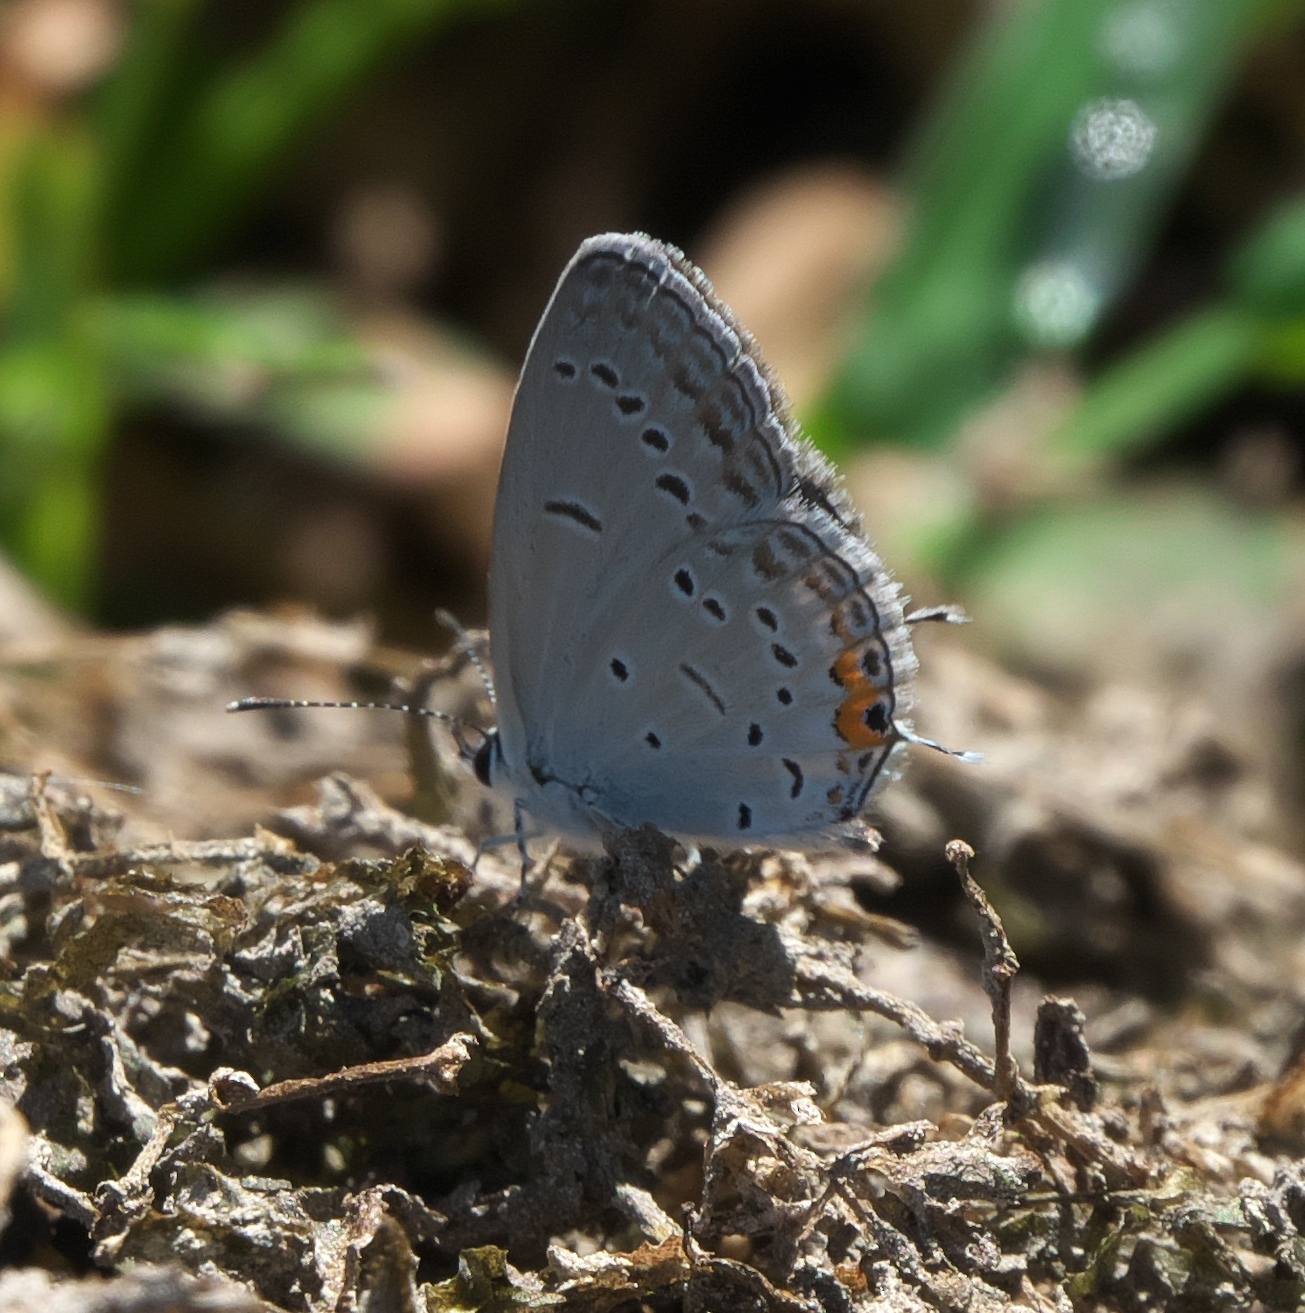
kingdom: Animalia
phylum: Arthropoda
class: Insecta
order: Lepidoptera
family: Lycaenidae
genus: Elkalyce
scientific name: Elkalyce comyntas
